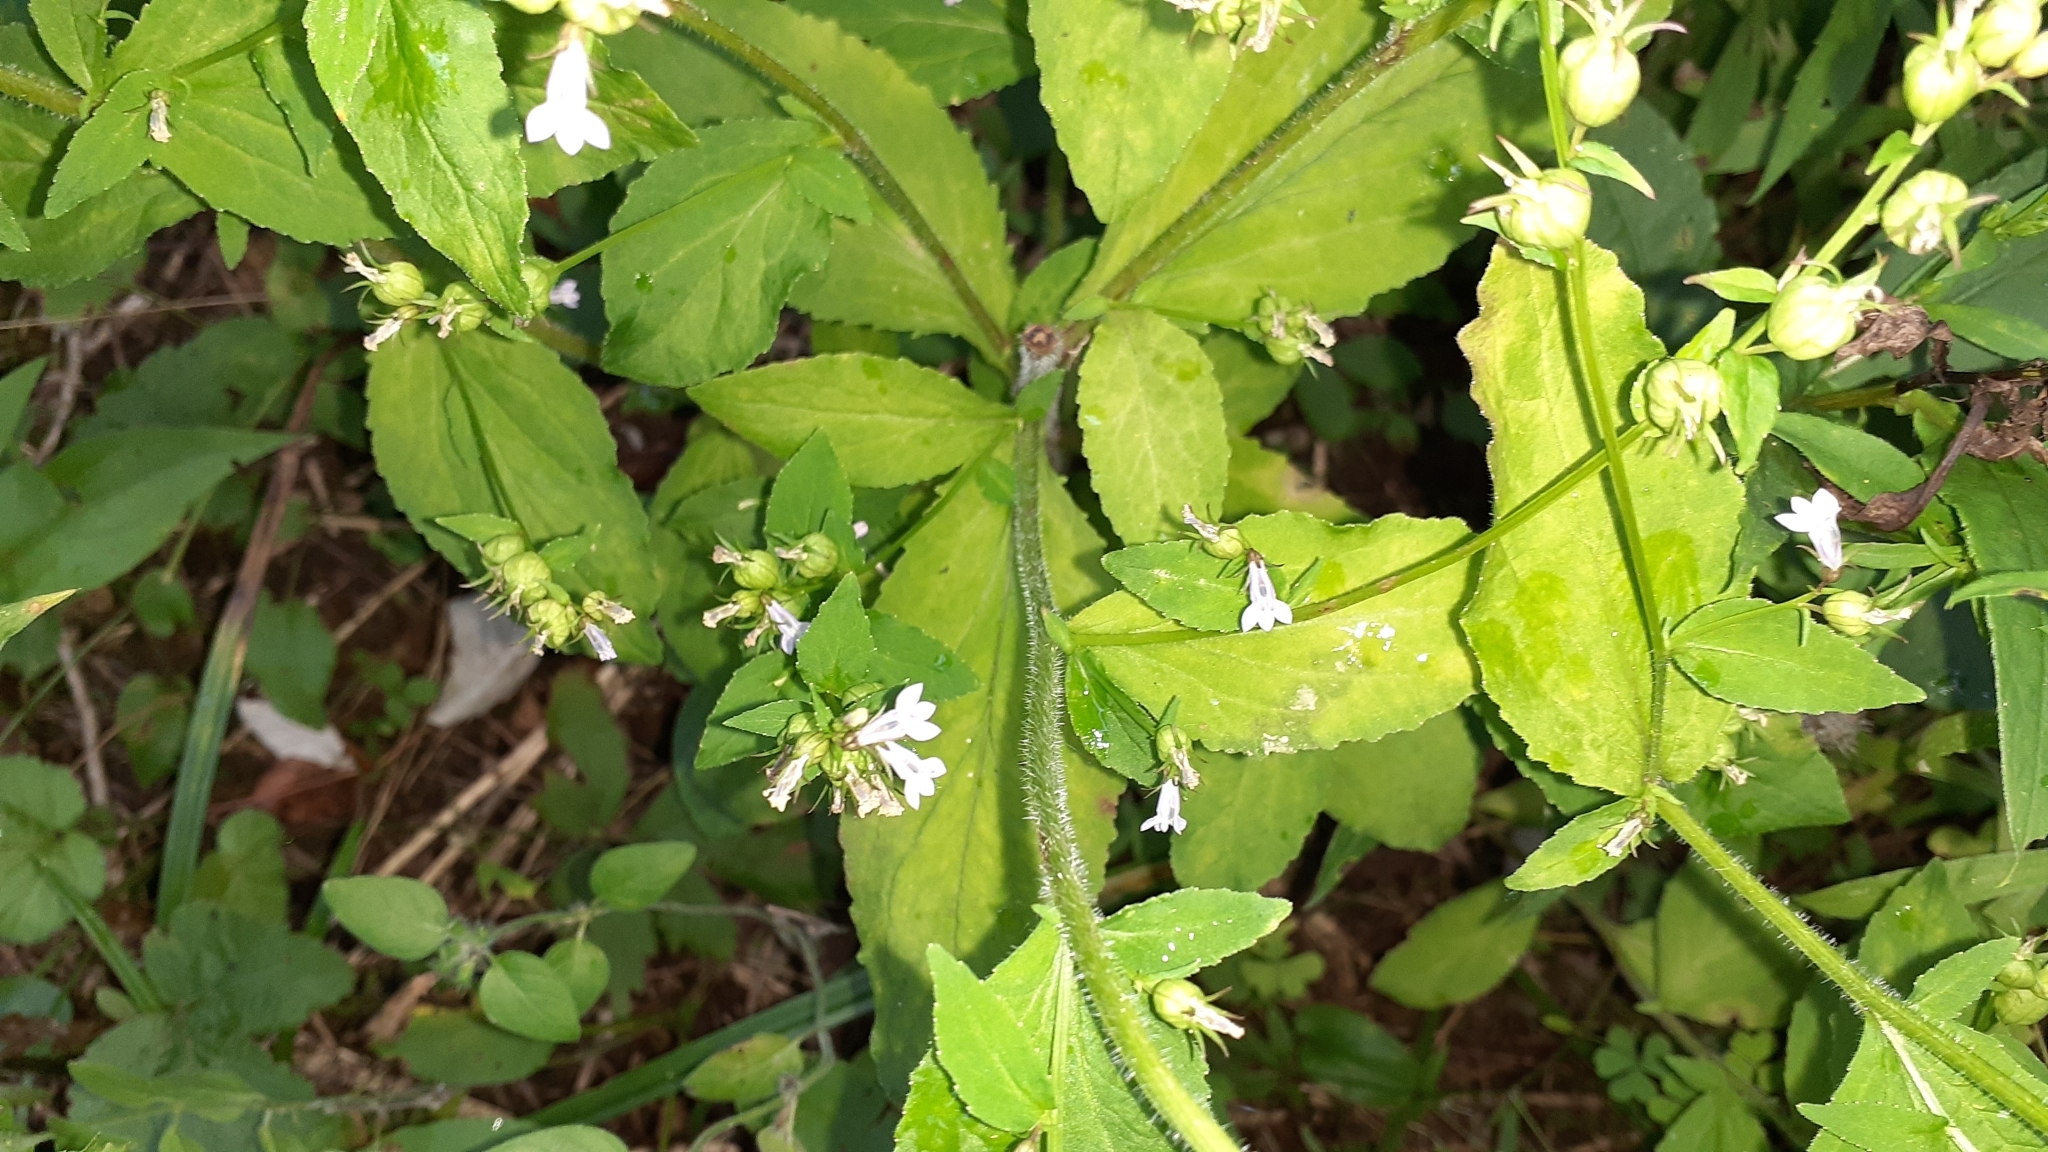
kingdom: Plantae
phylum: Tracheophyta
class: Magnoliopsida
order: Asterales
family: Campanulaceae
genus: Lobelia
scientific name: Lobelia inflata
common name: Indian tobacco
